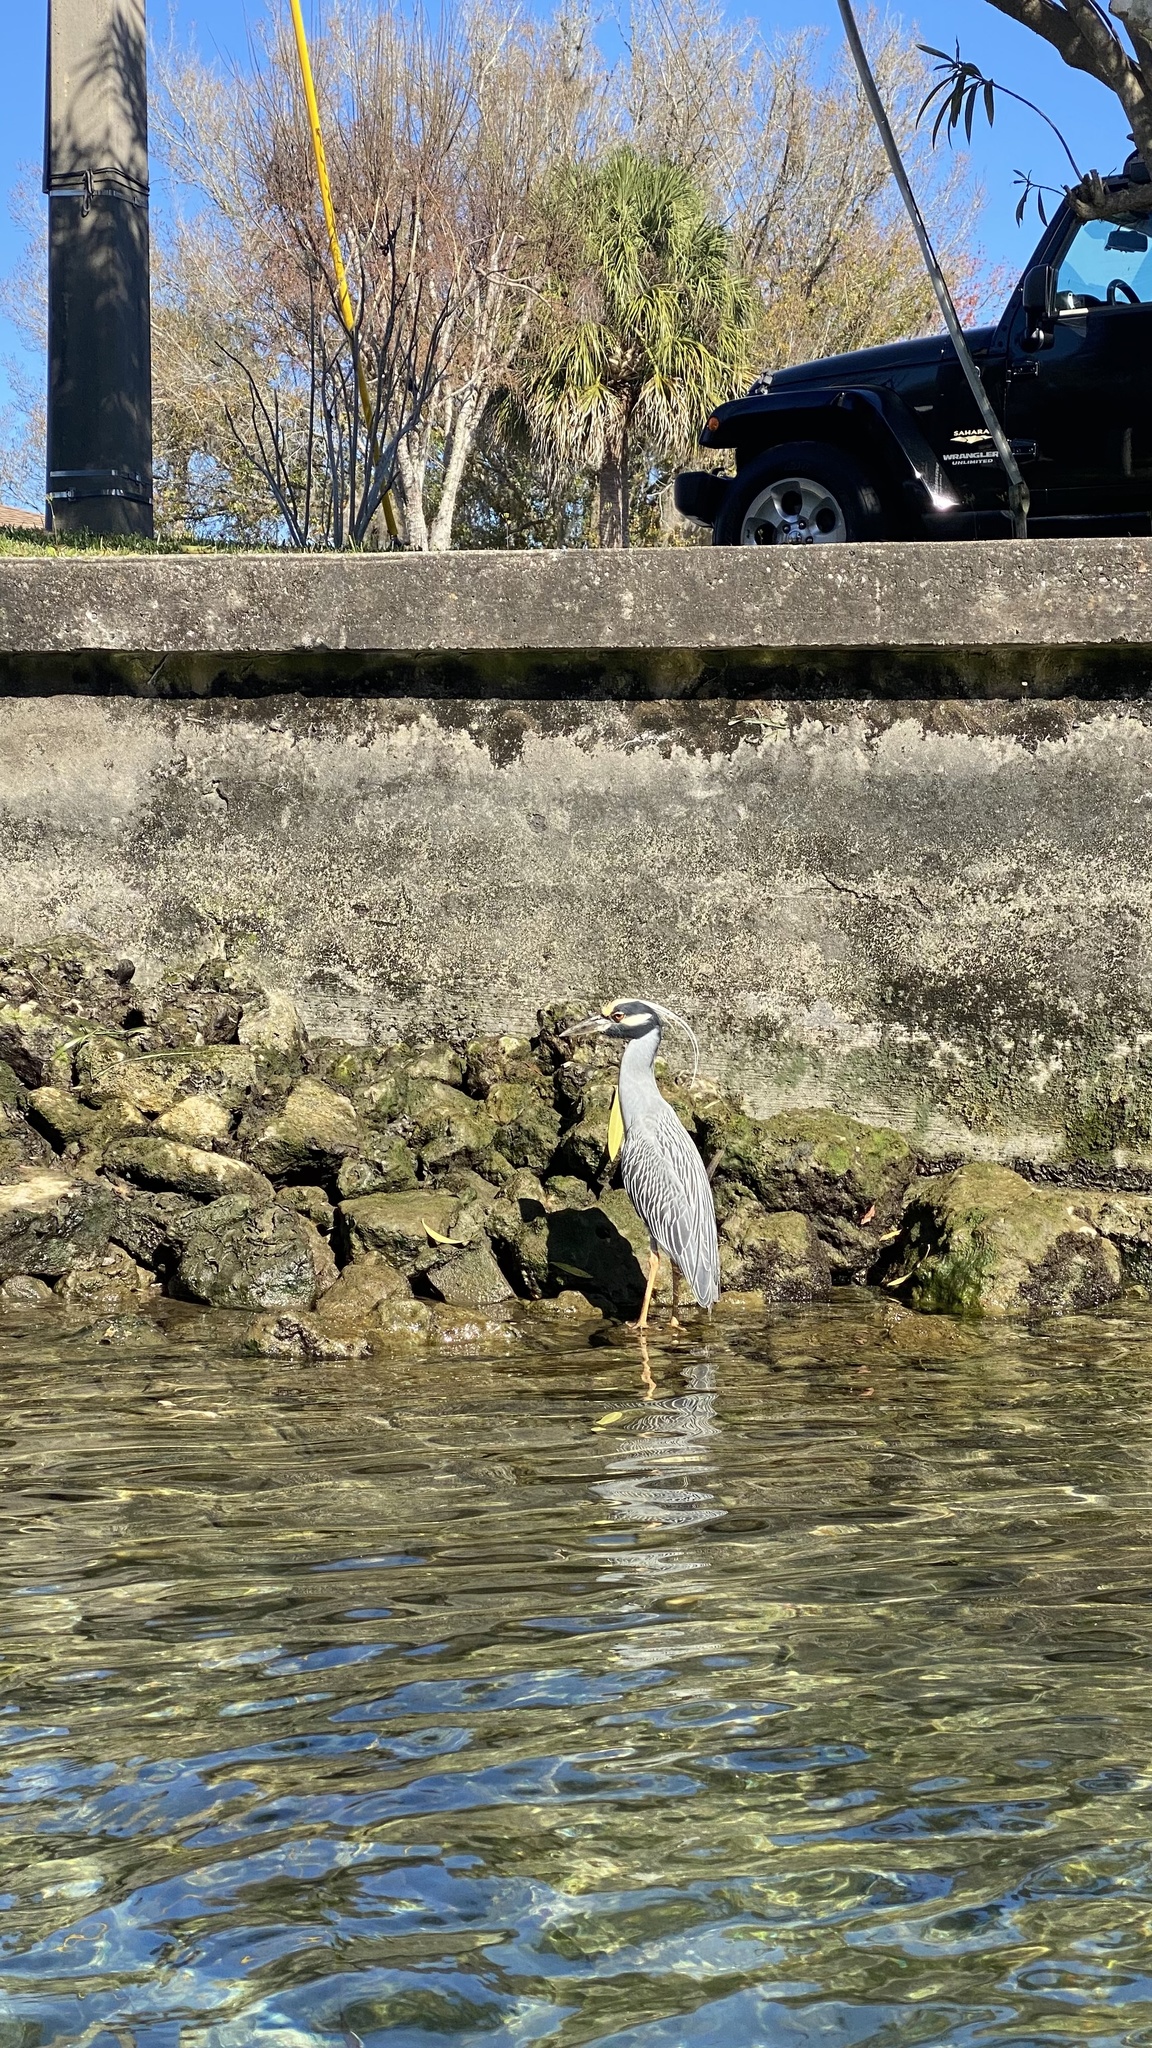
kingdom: Animalia
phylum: Chordata
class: Aves
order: Pelecaniformes
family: Ardeidae
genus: Nyctanassa
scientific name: Nyctanassa violacea
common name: Yellow-crowned night heron
